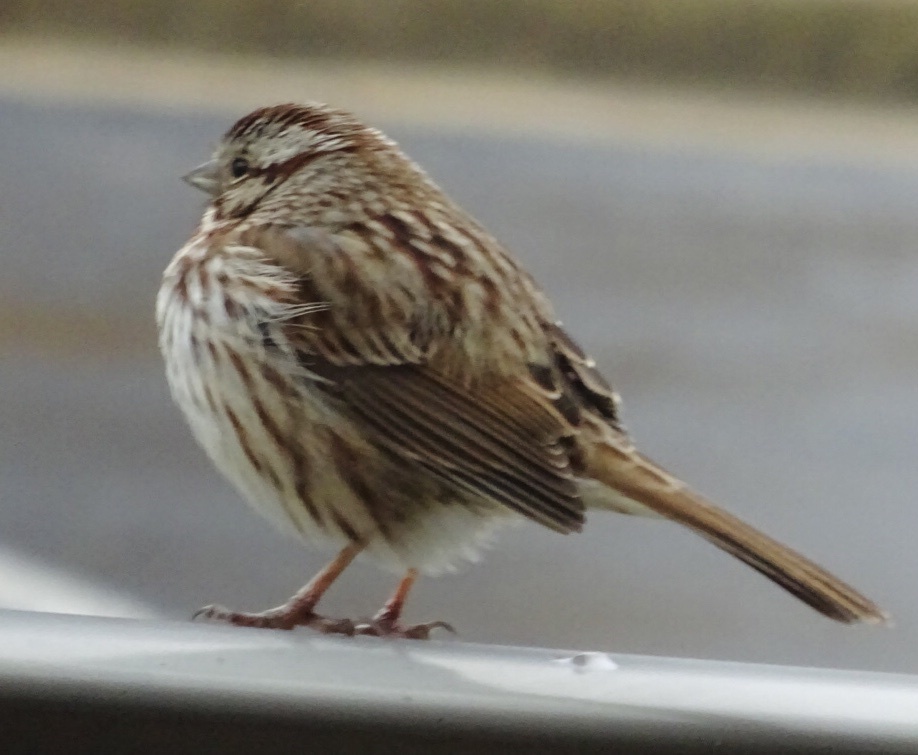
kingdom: Animalia
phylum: Chordata
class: Aves
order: Passeriformes
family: Passerellidae
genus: Melospiza
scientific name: Melospiza melodia
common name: Song sparrow
